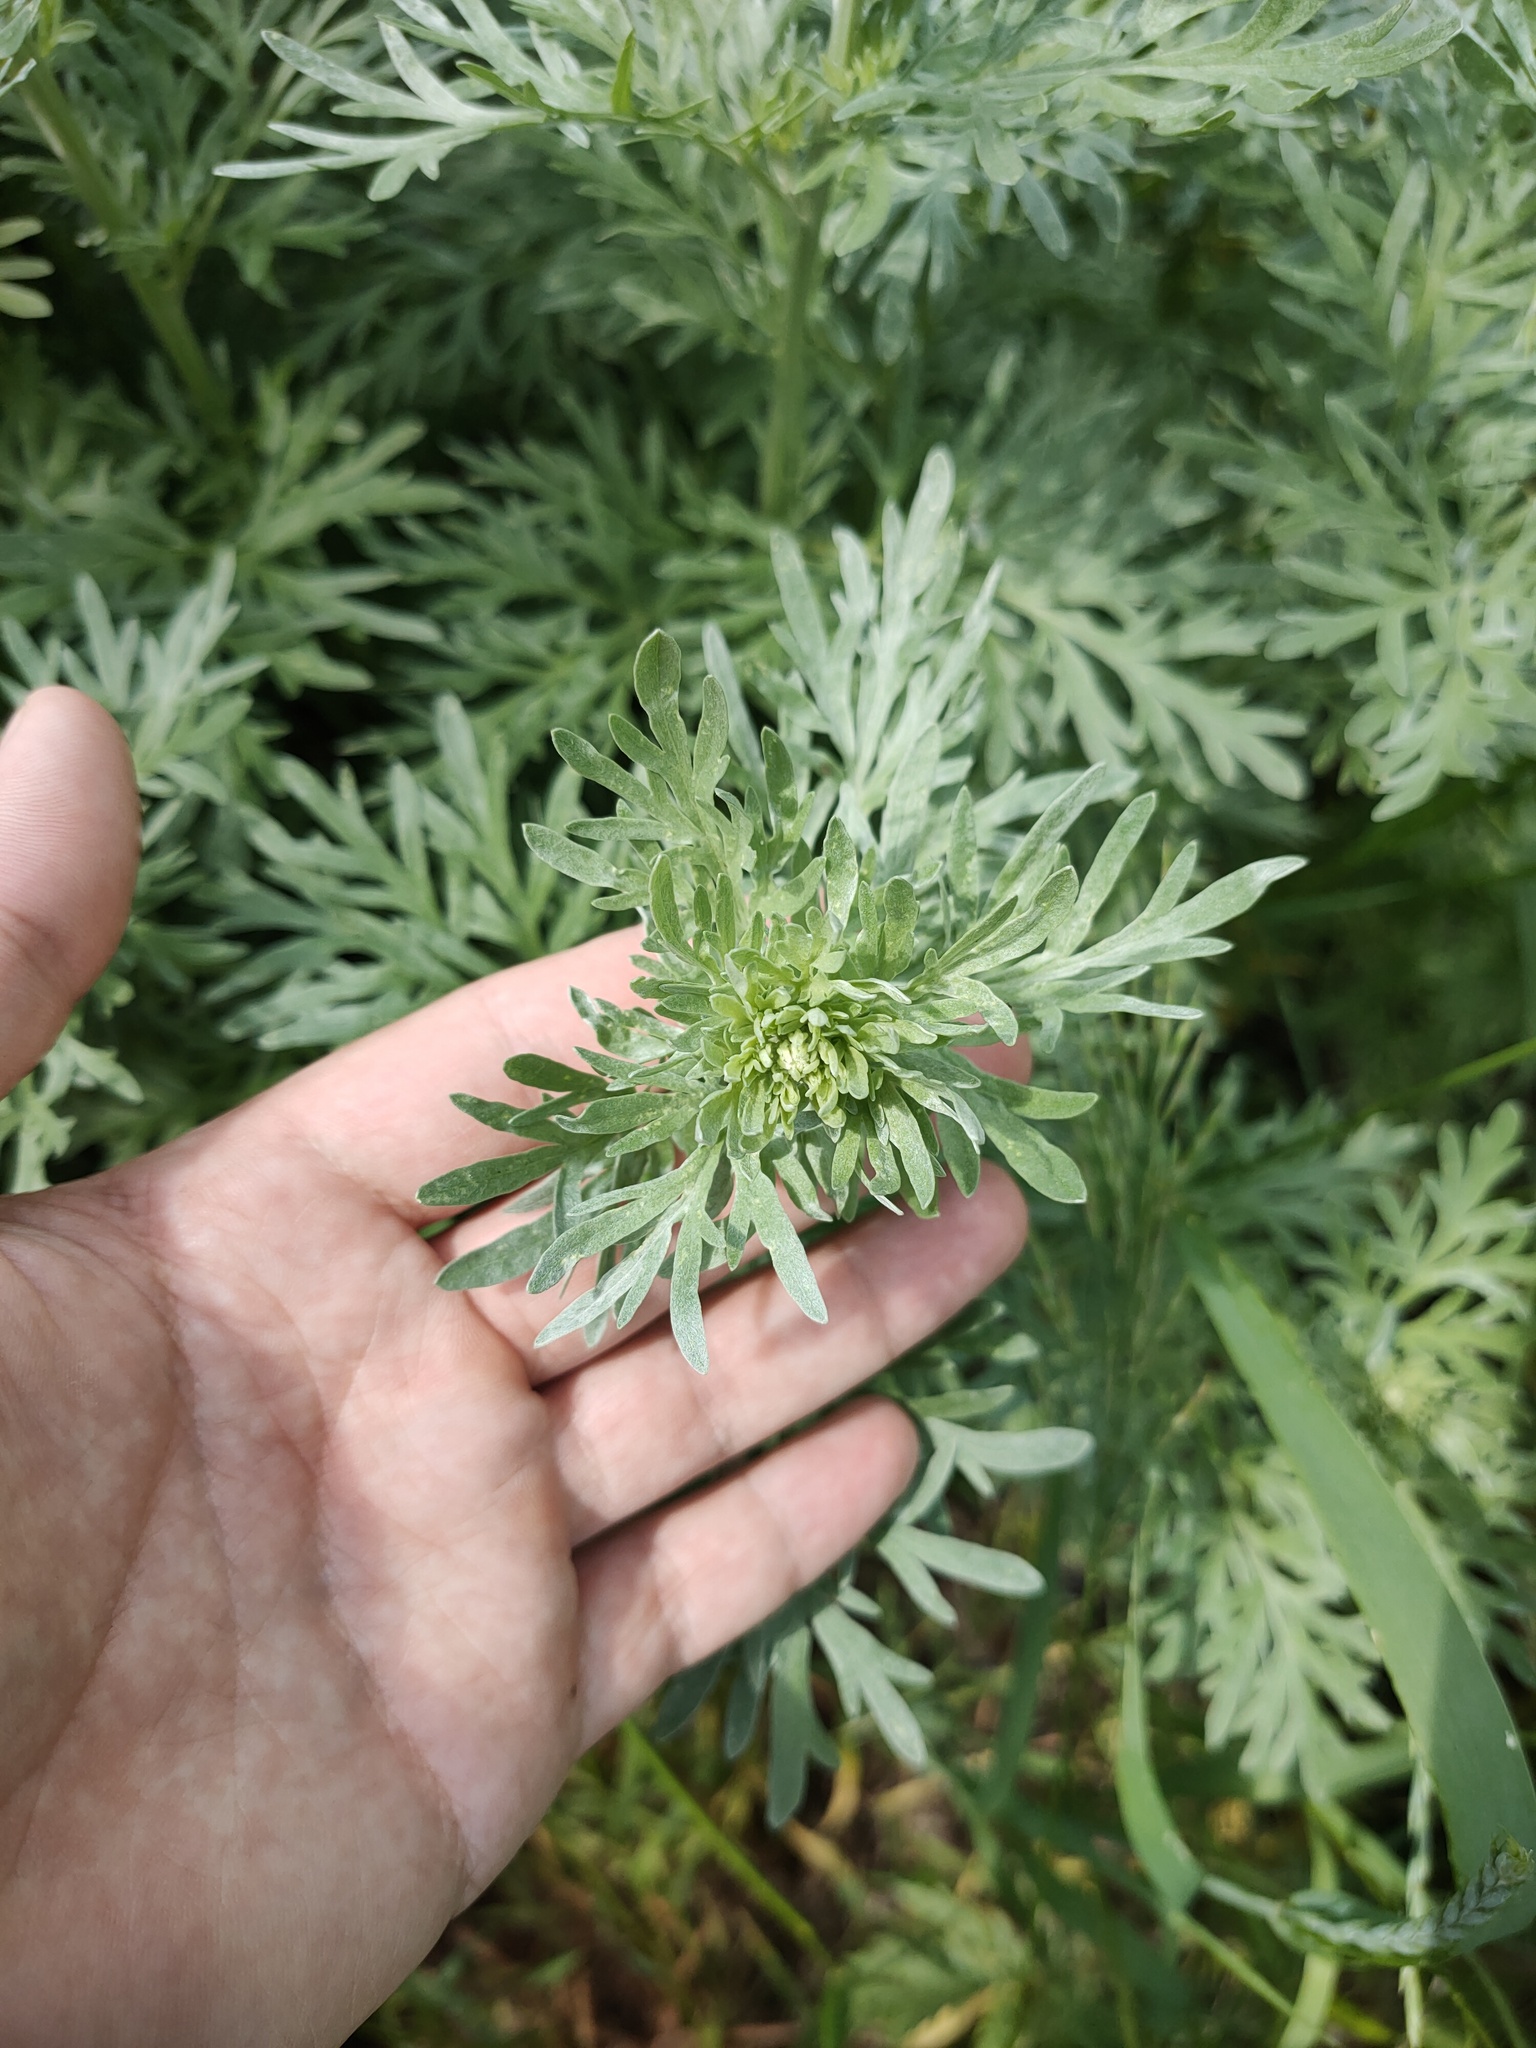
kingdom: Plantae
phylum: Tracheophyta
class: Magnoliopsida
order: Asterales
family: Asteraceae
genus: Artemisia
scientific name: Artemisia absinthium
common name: Wormwood
